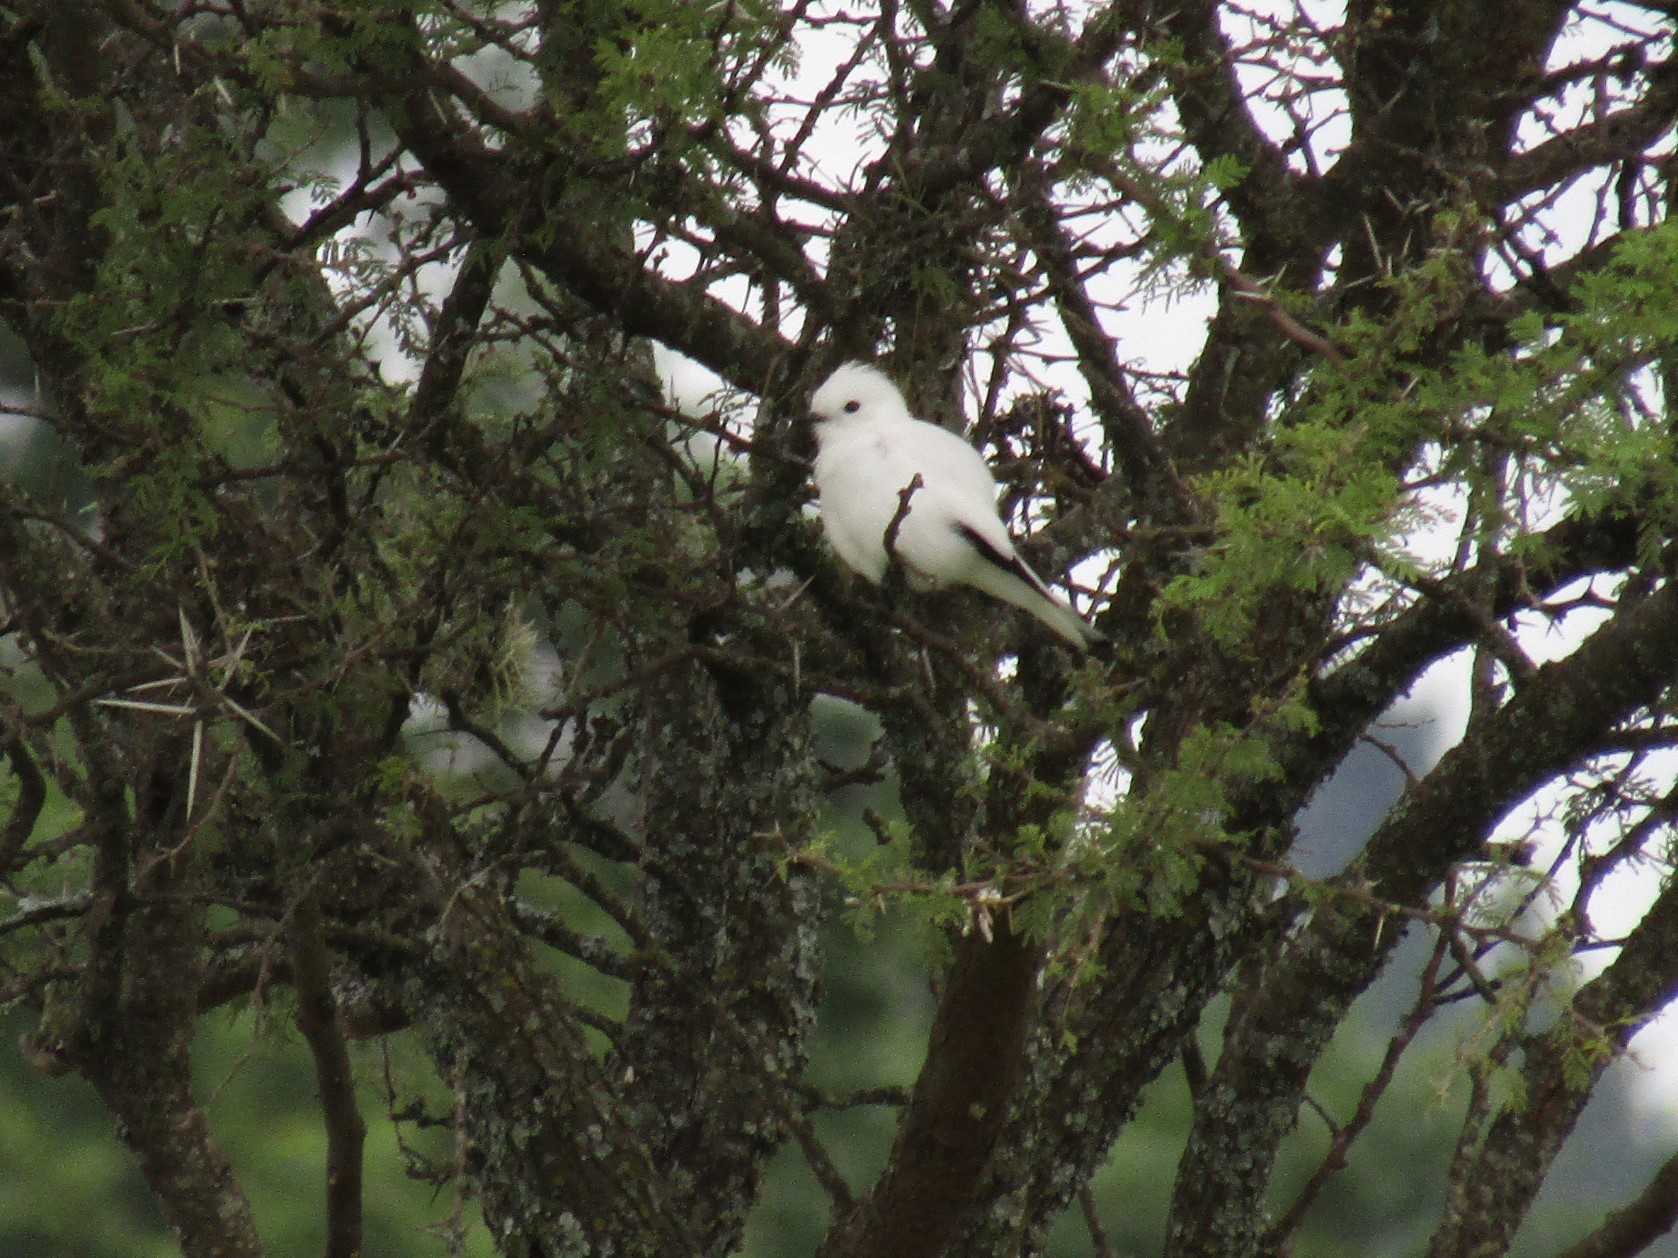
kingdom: Animalia
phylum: Chordata
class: Aves
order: Passeriformes
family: Tyrannidae
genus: Xolmis
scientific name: Xolmis irupero
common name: White monjita
